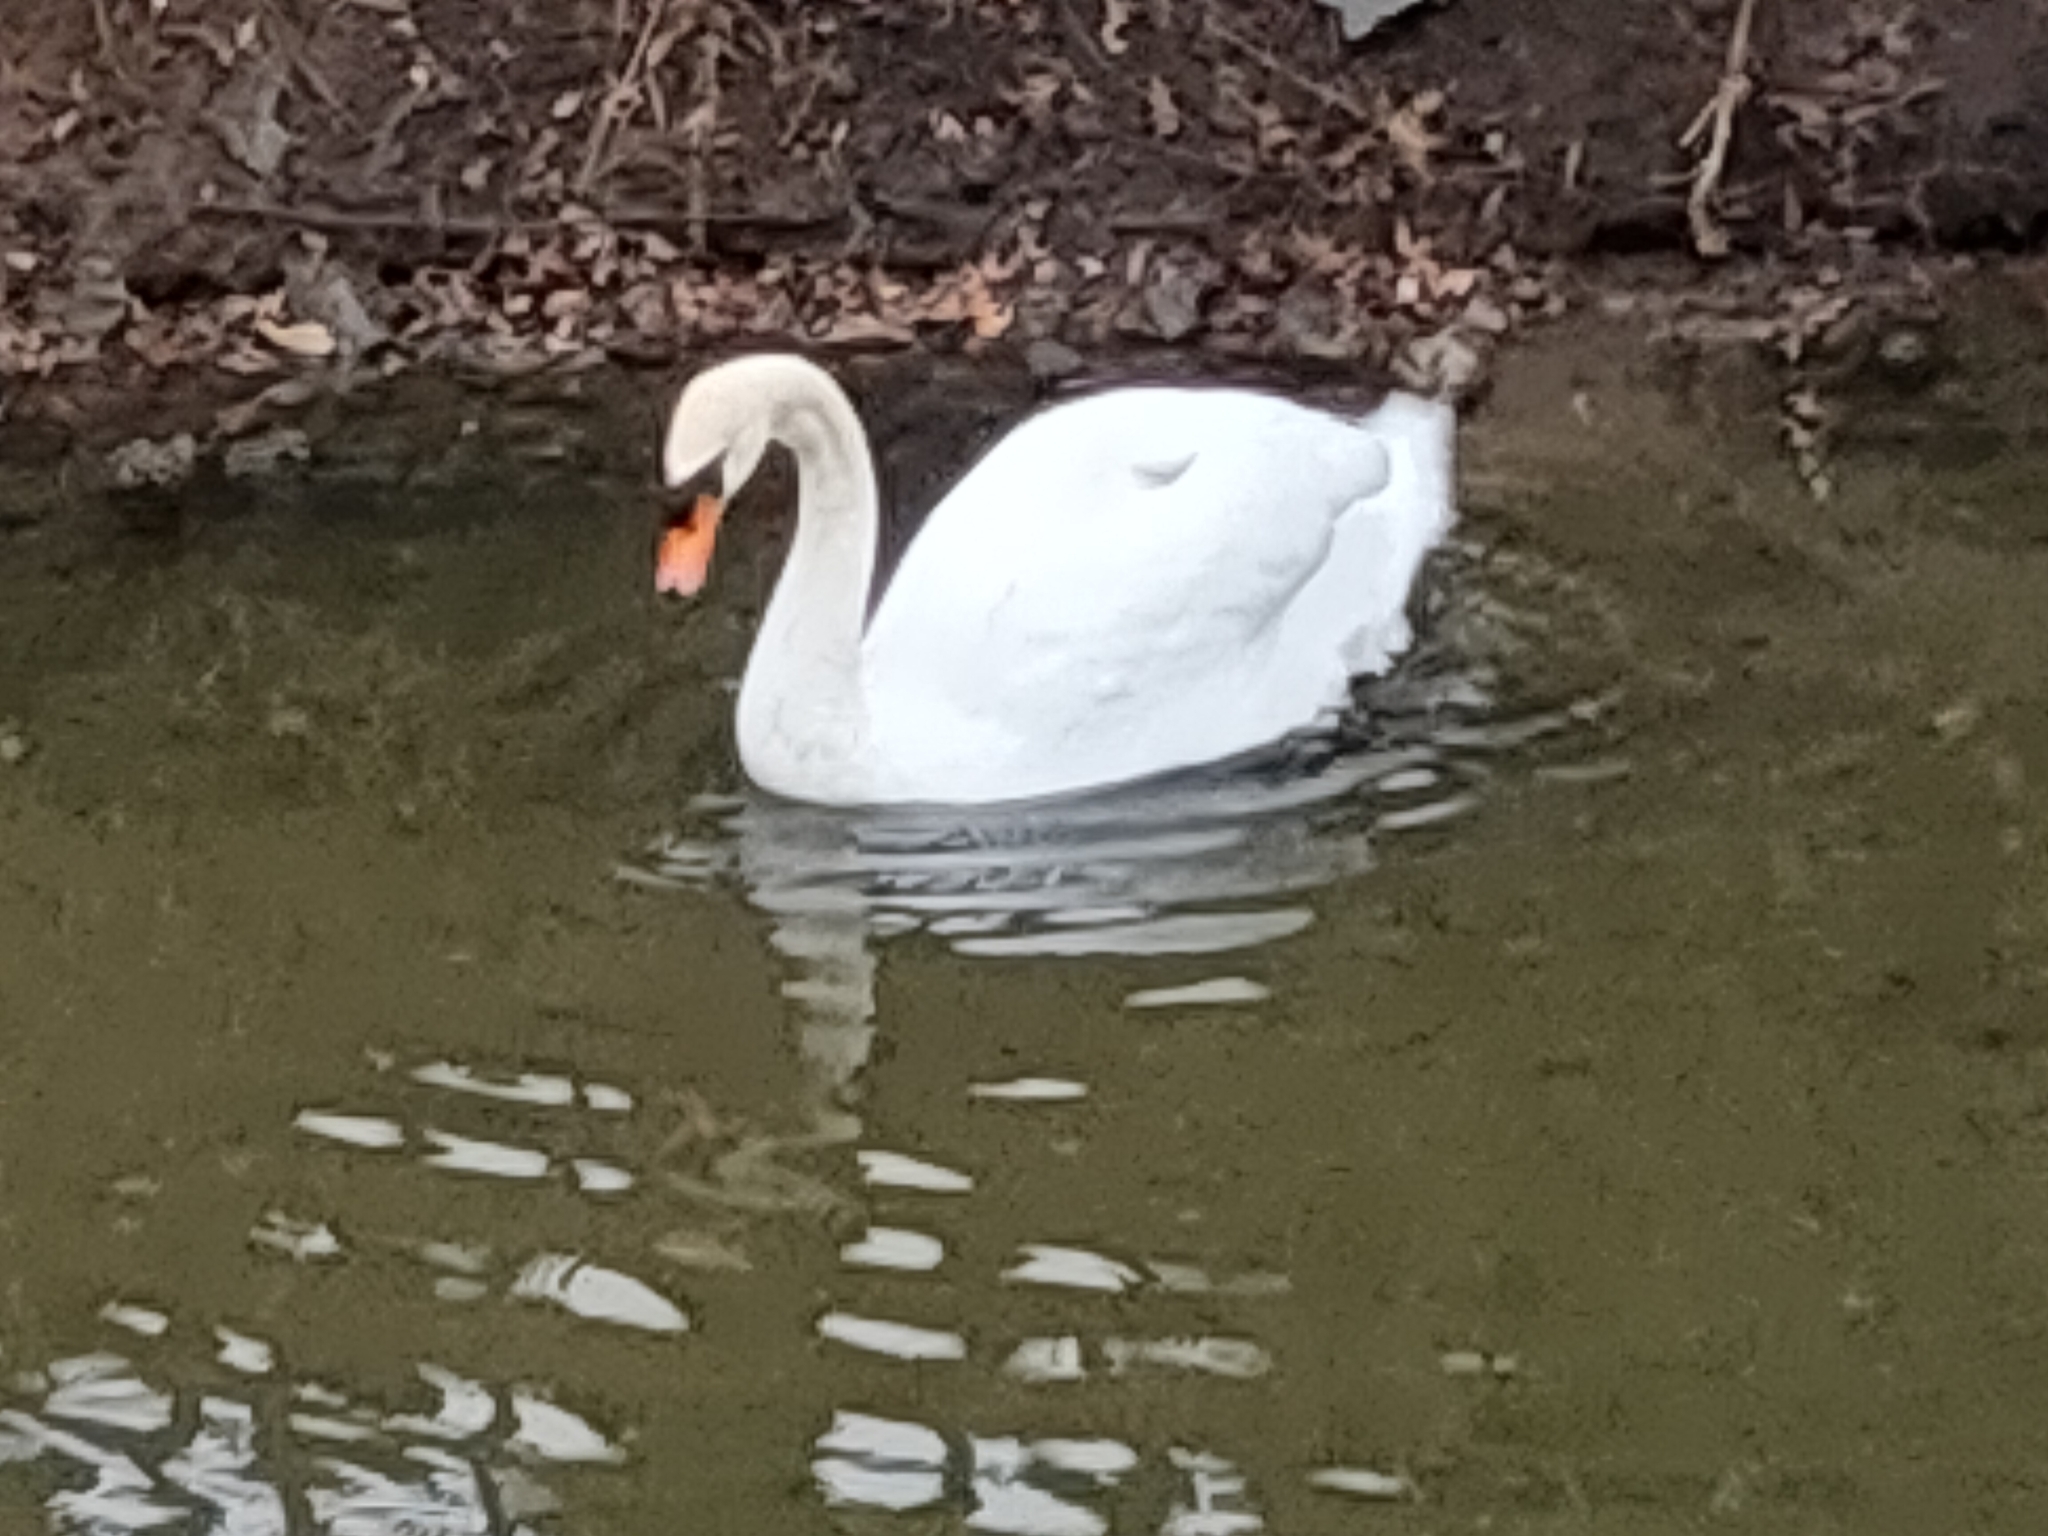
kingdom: Animalia
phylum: Chordata
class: Aves
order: Anseriformes
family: Anatidae
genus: Cygnus
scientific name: Cygnus olor
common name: Mute swan
